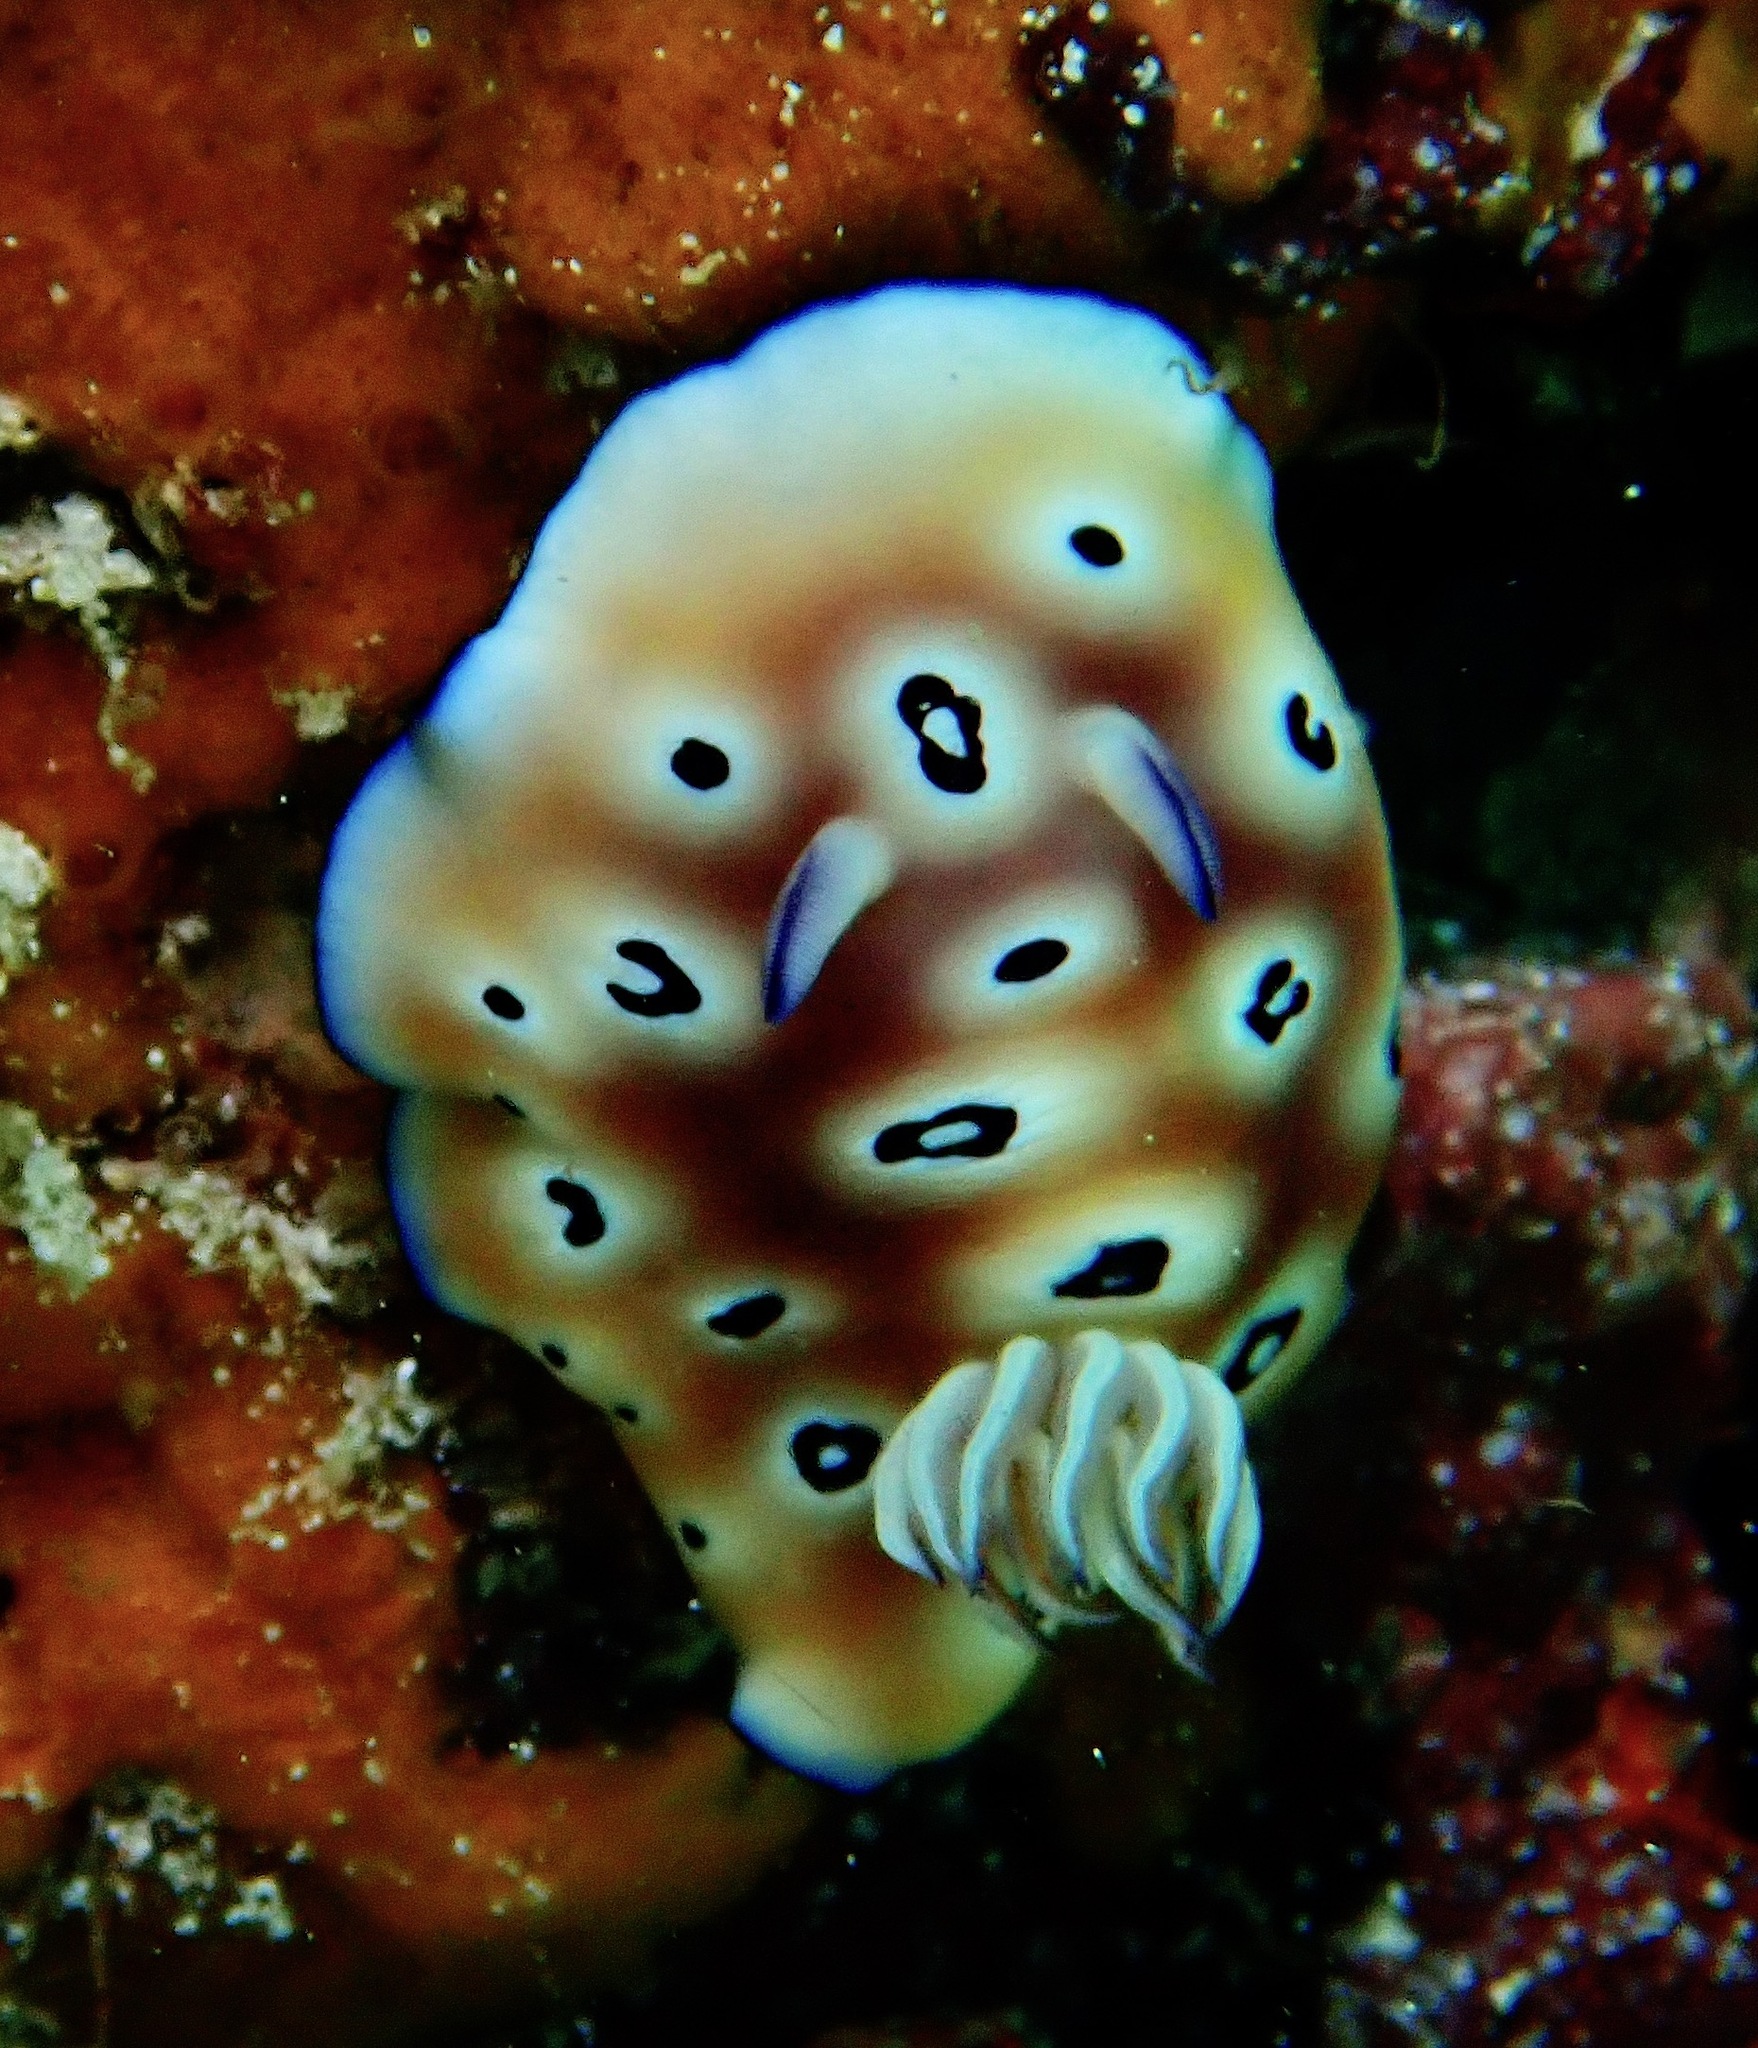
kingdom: Animalia
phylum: Mollusca
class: Gastropoda
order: Nudibranchia
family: Chromodorididae
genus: Goniobranchus
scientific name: Goniobranchus leopardus
